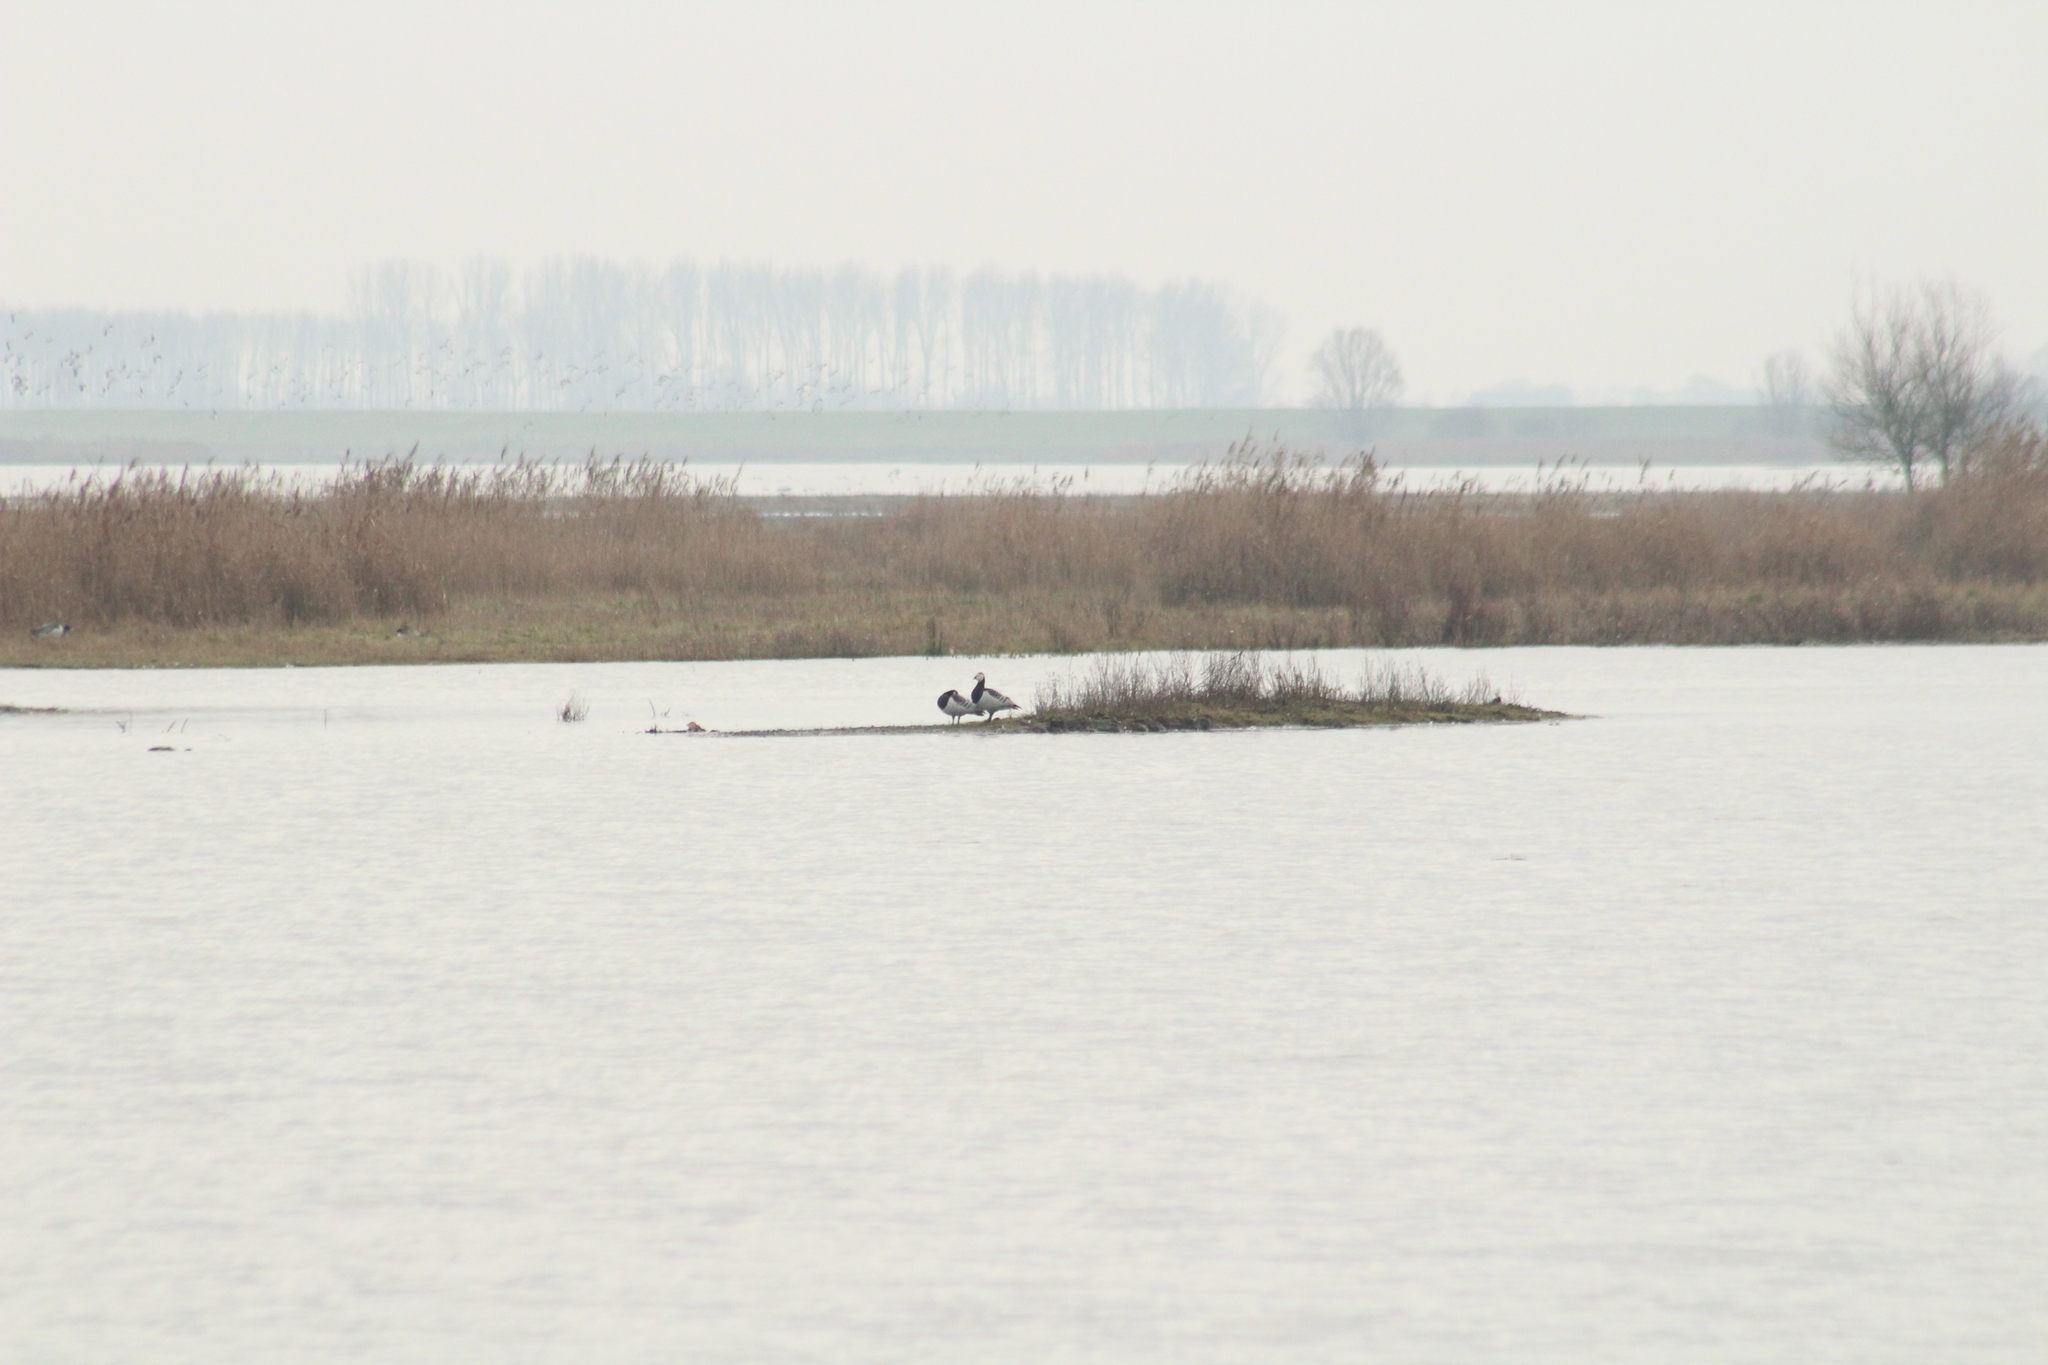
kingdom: Animalia
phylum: Chordata
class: Aves
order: Anseriformes
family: Anatidae
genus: Branta
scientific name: Branta leucopsis
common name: Barnacle goose
